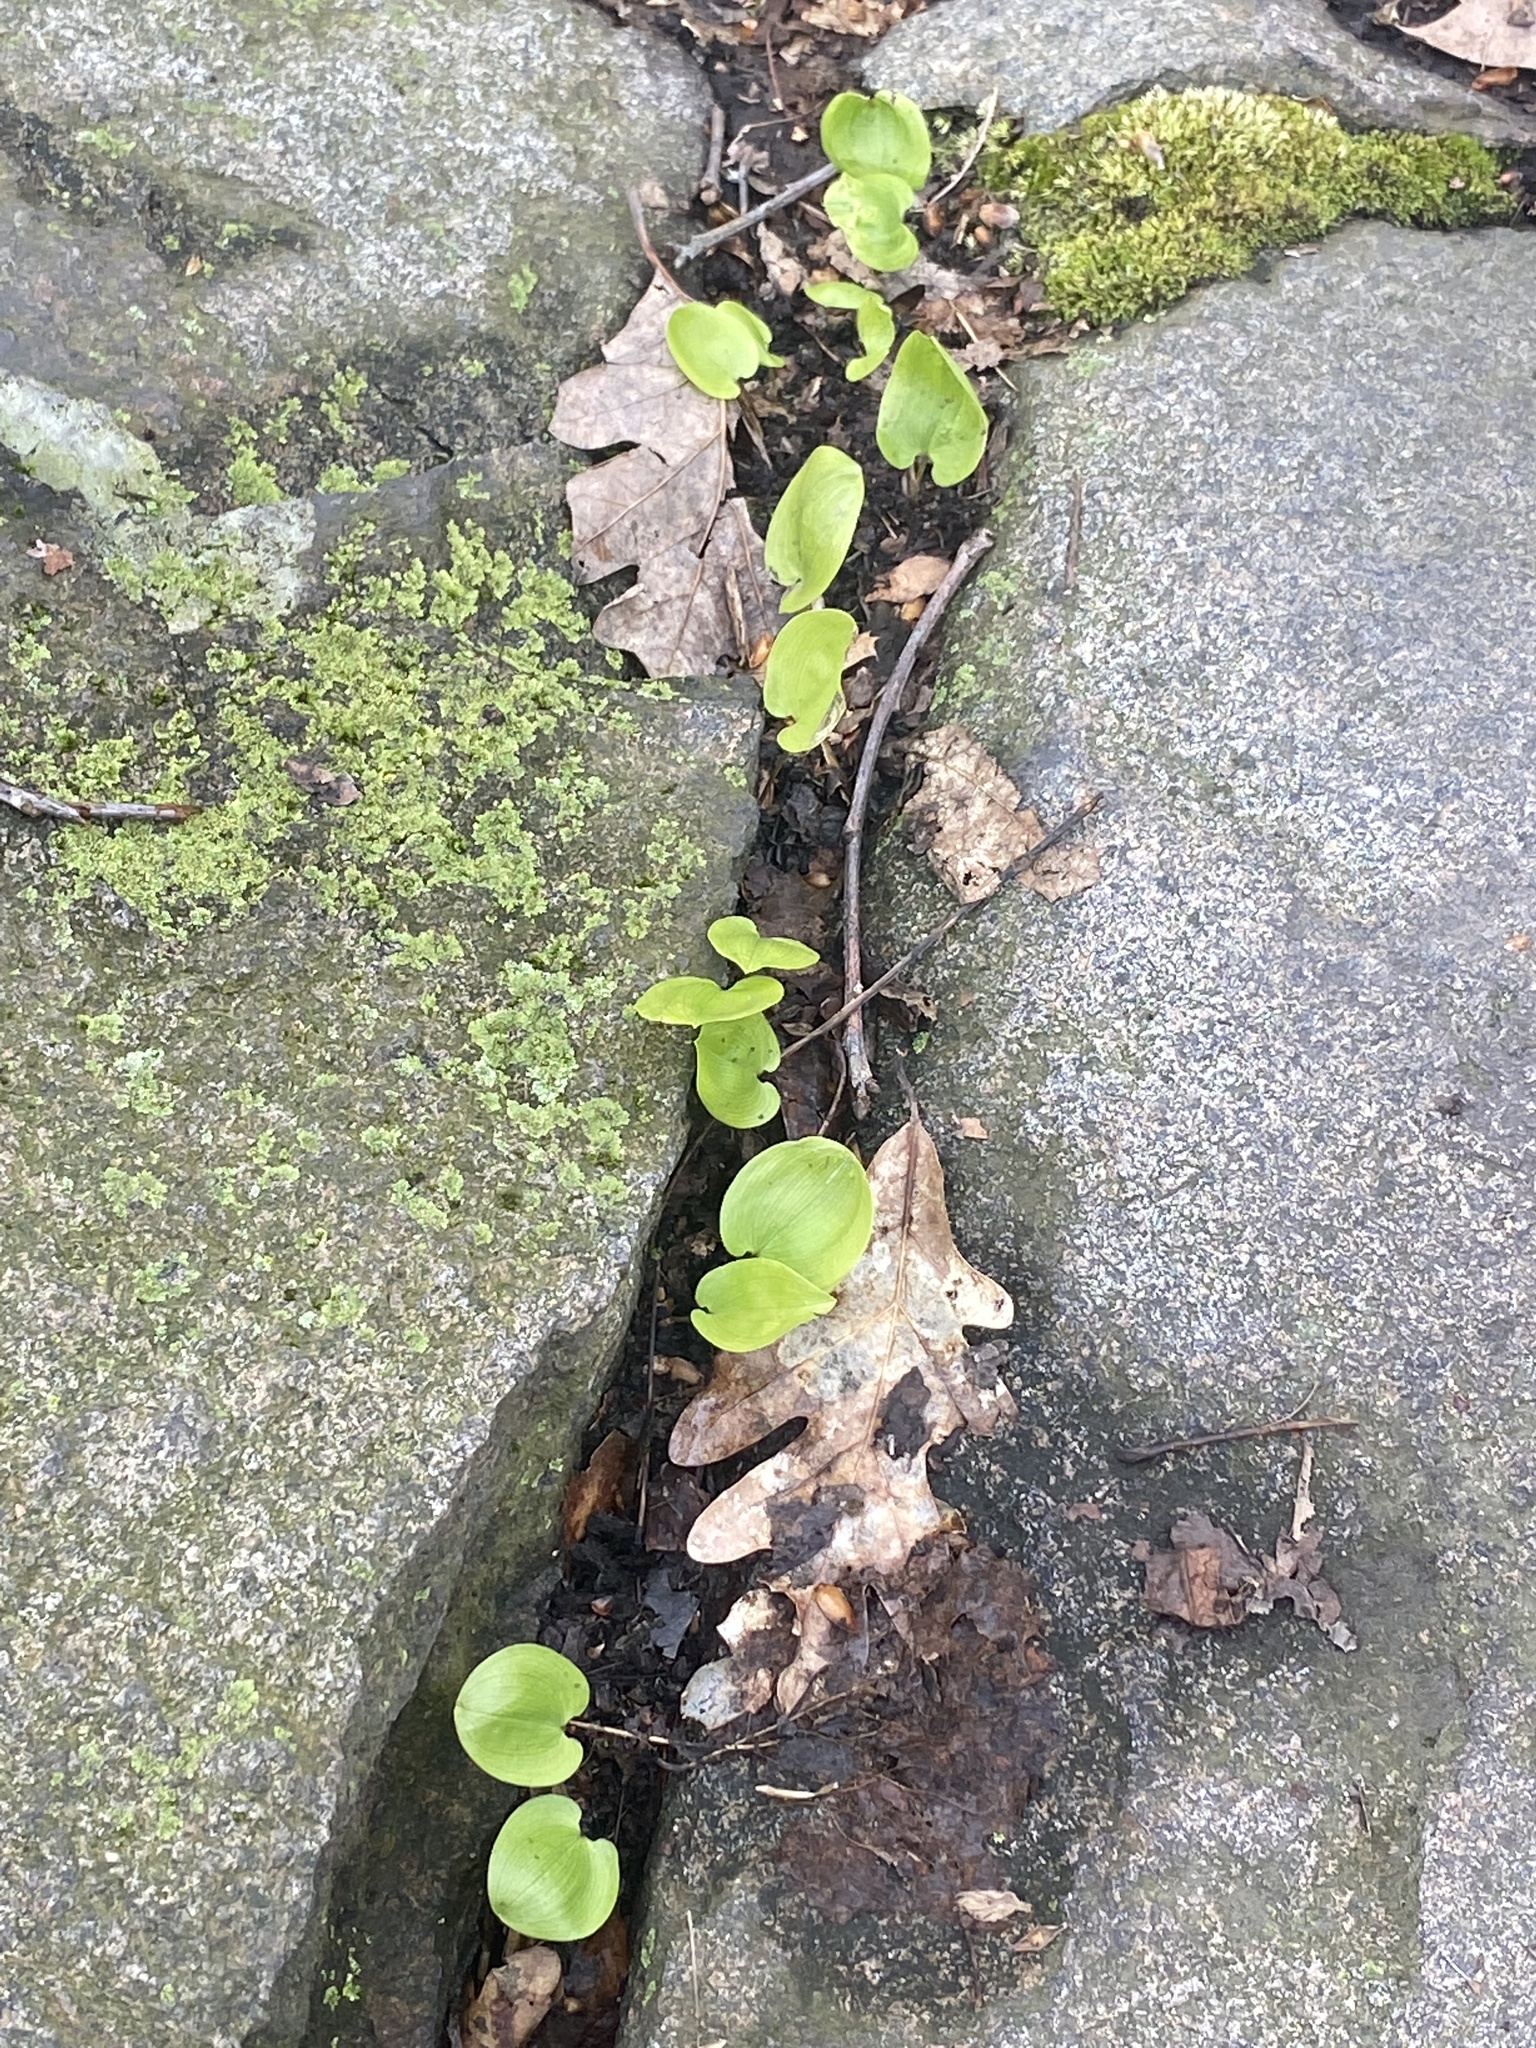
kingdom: Plantae
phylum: Tracheophyta
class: Liliopsida
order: Asparagales
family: Asparagaceae
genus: Maianthemum
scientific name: Maianthemum canadense
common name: False lily-of-the-valley
